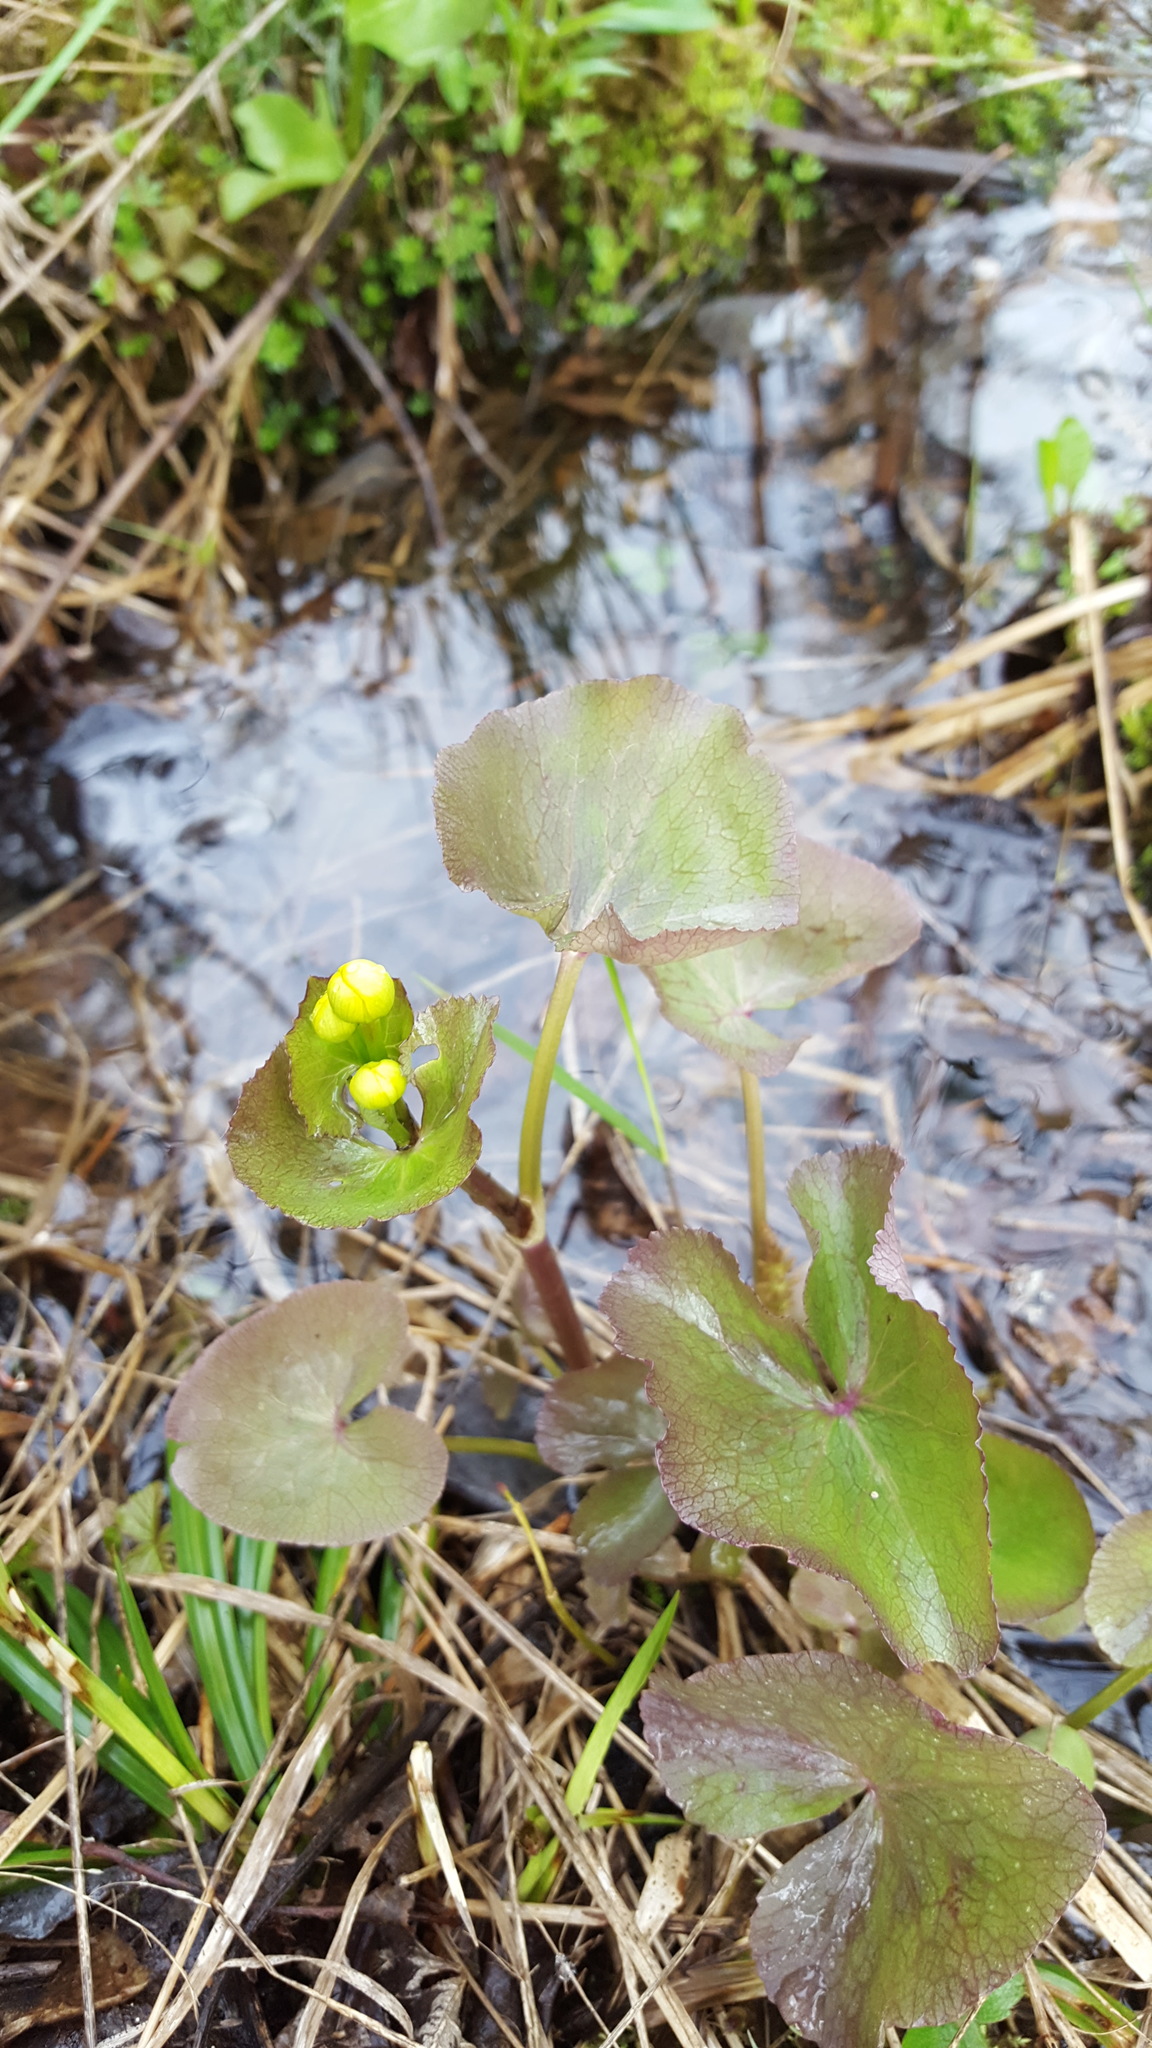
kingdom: Plantae
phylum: Tracheophyta
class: Magnoliopsida
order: Ranunculales
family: Ranunculaceae
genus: Caltha
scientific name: Caltha palustris
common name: Marsh marigold
